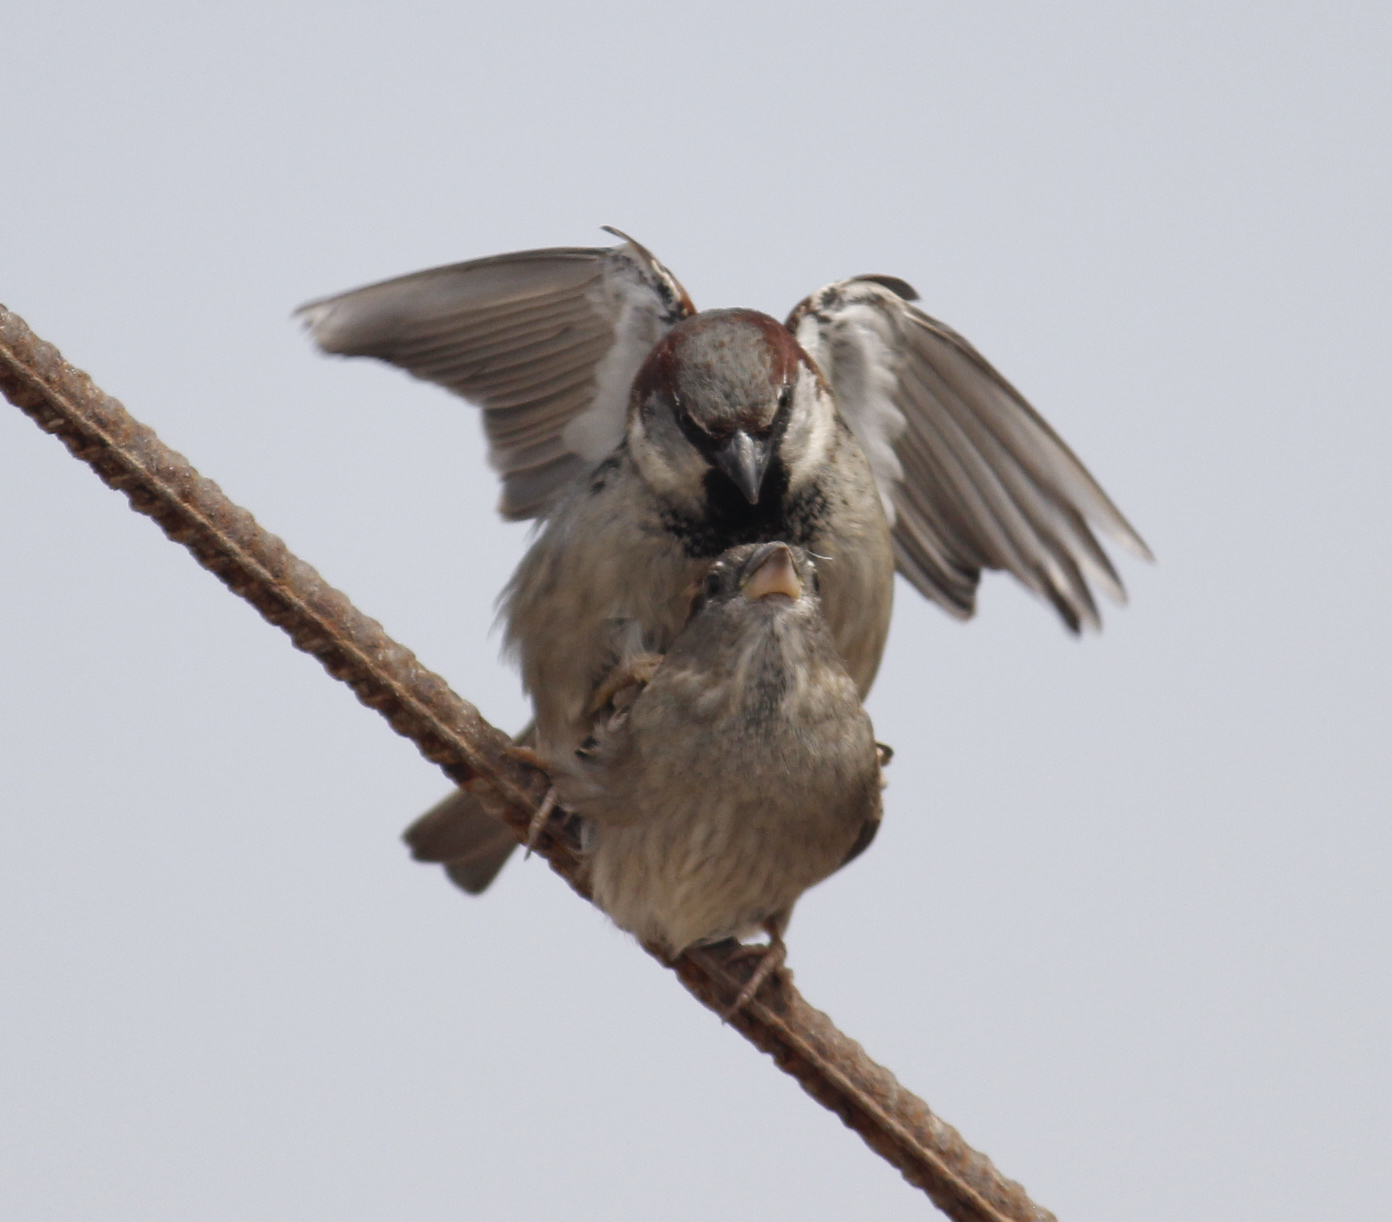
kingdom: Animalia
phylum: Chordata
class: Aves
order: Passeriformes
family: Passeridae
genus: Passer
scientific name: Passer domesticus
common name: House sparrow
